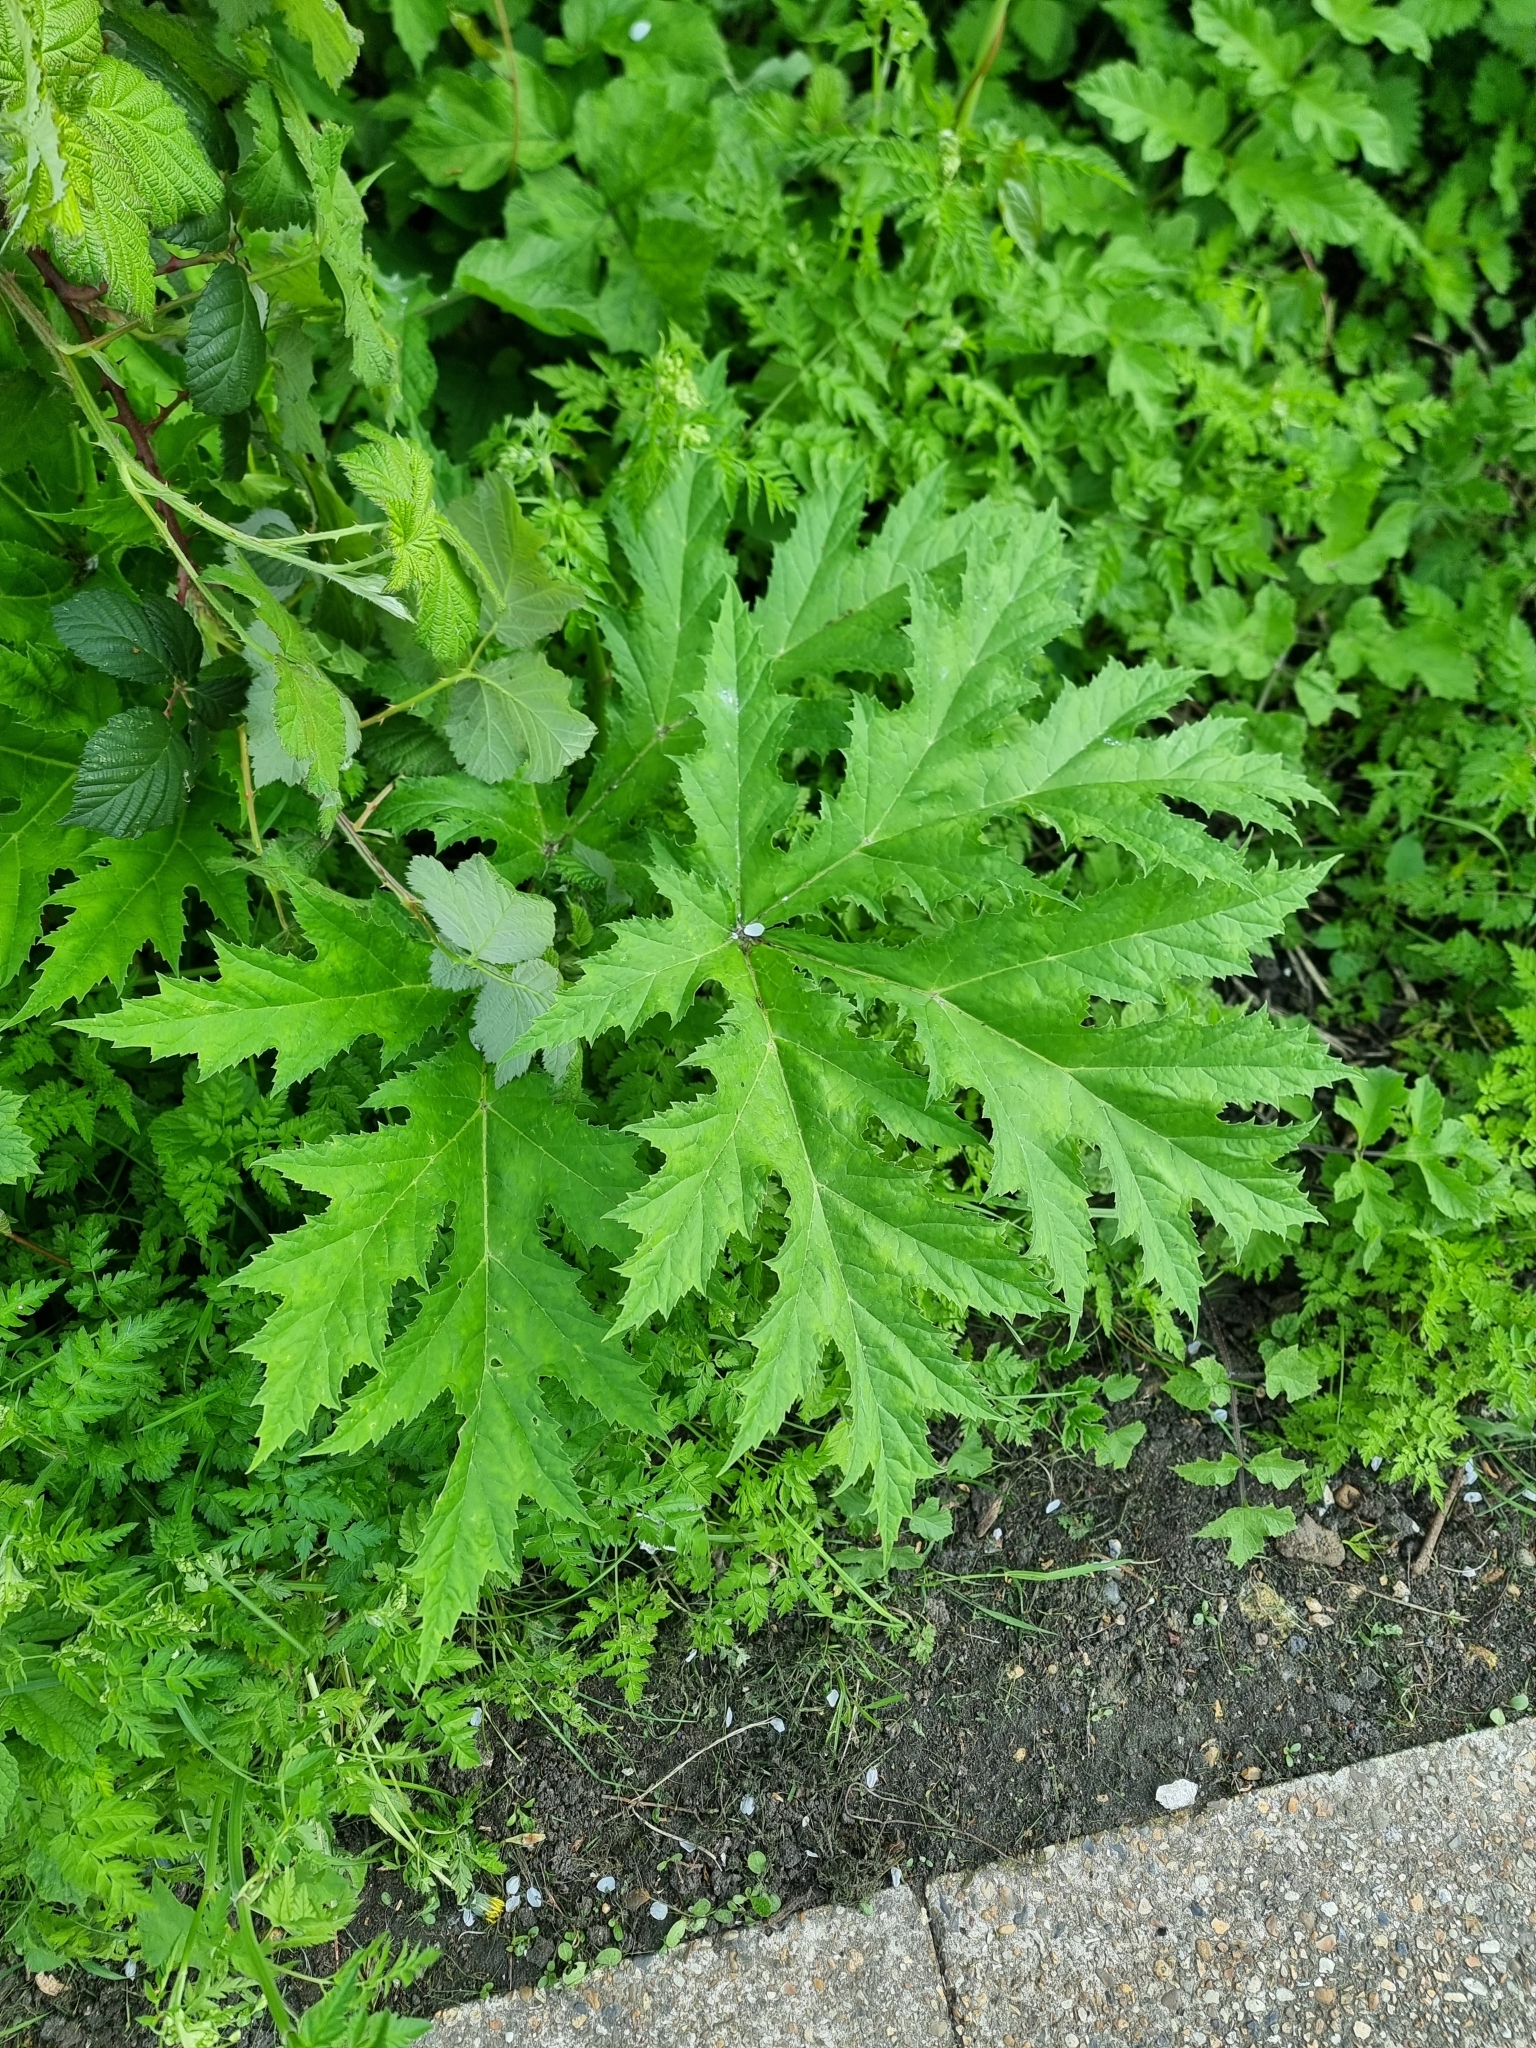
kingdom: Plantae
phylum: Tracheophyta
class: Magnoliopsida
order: Apiales
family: Apiaceae
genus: Heracleum
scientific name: Heracleum mantegazzianum
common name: Giant hogweed
